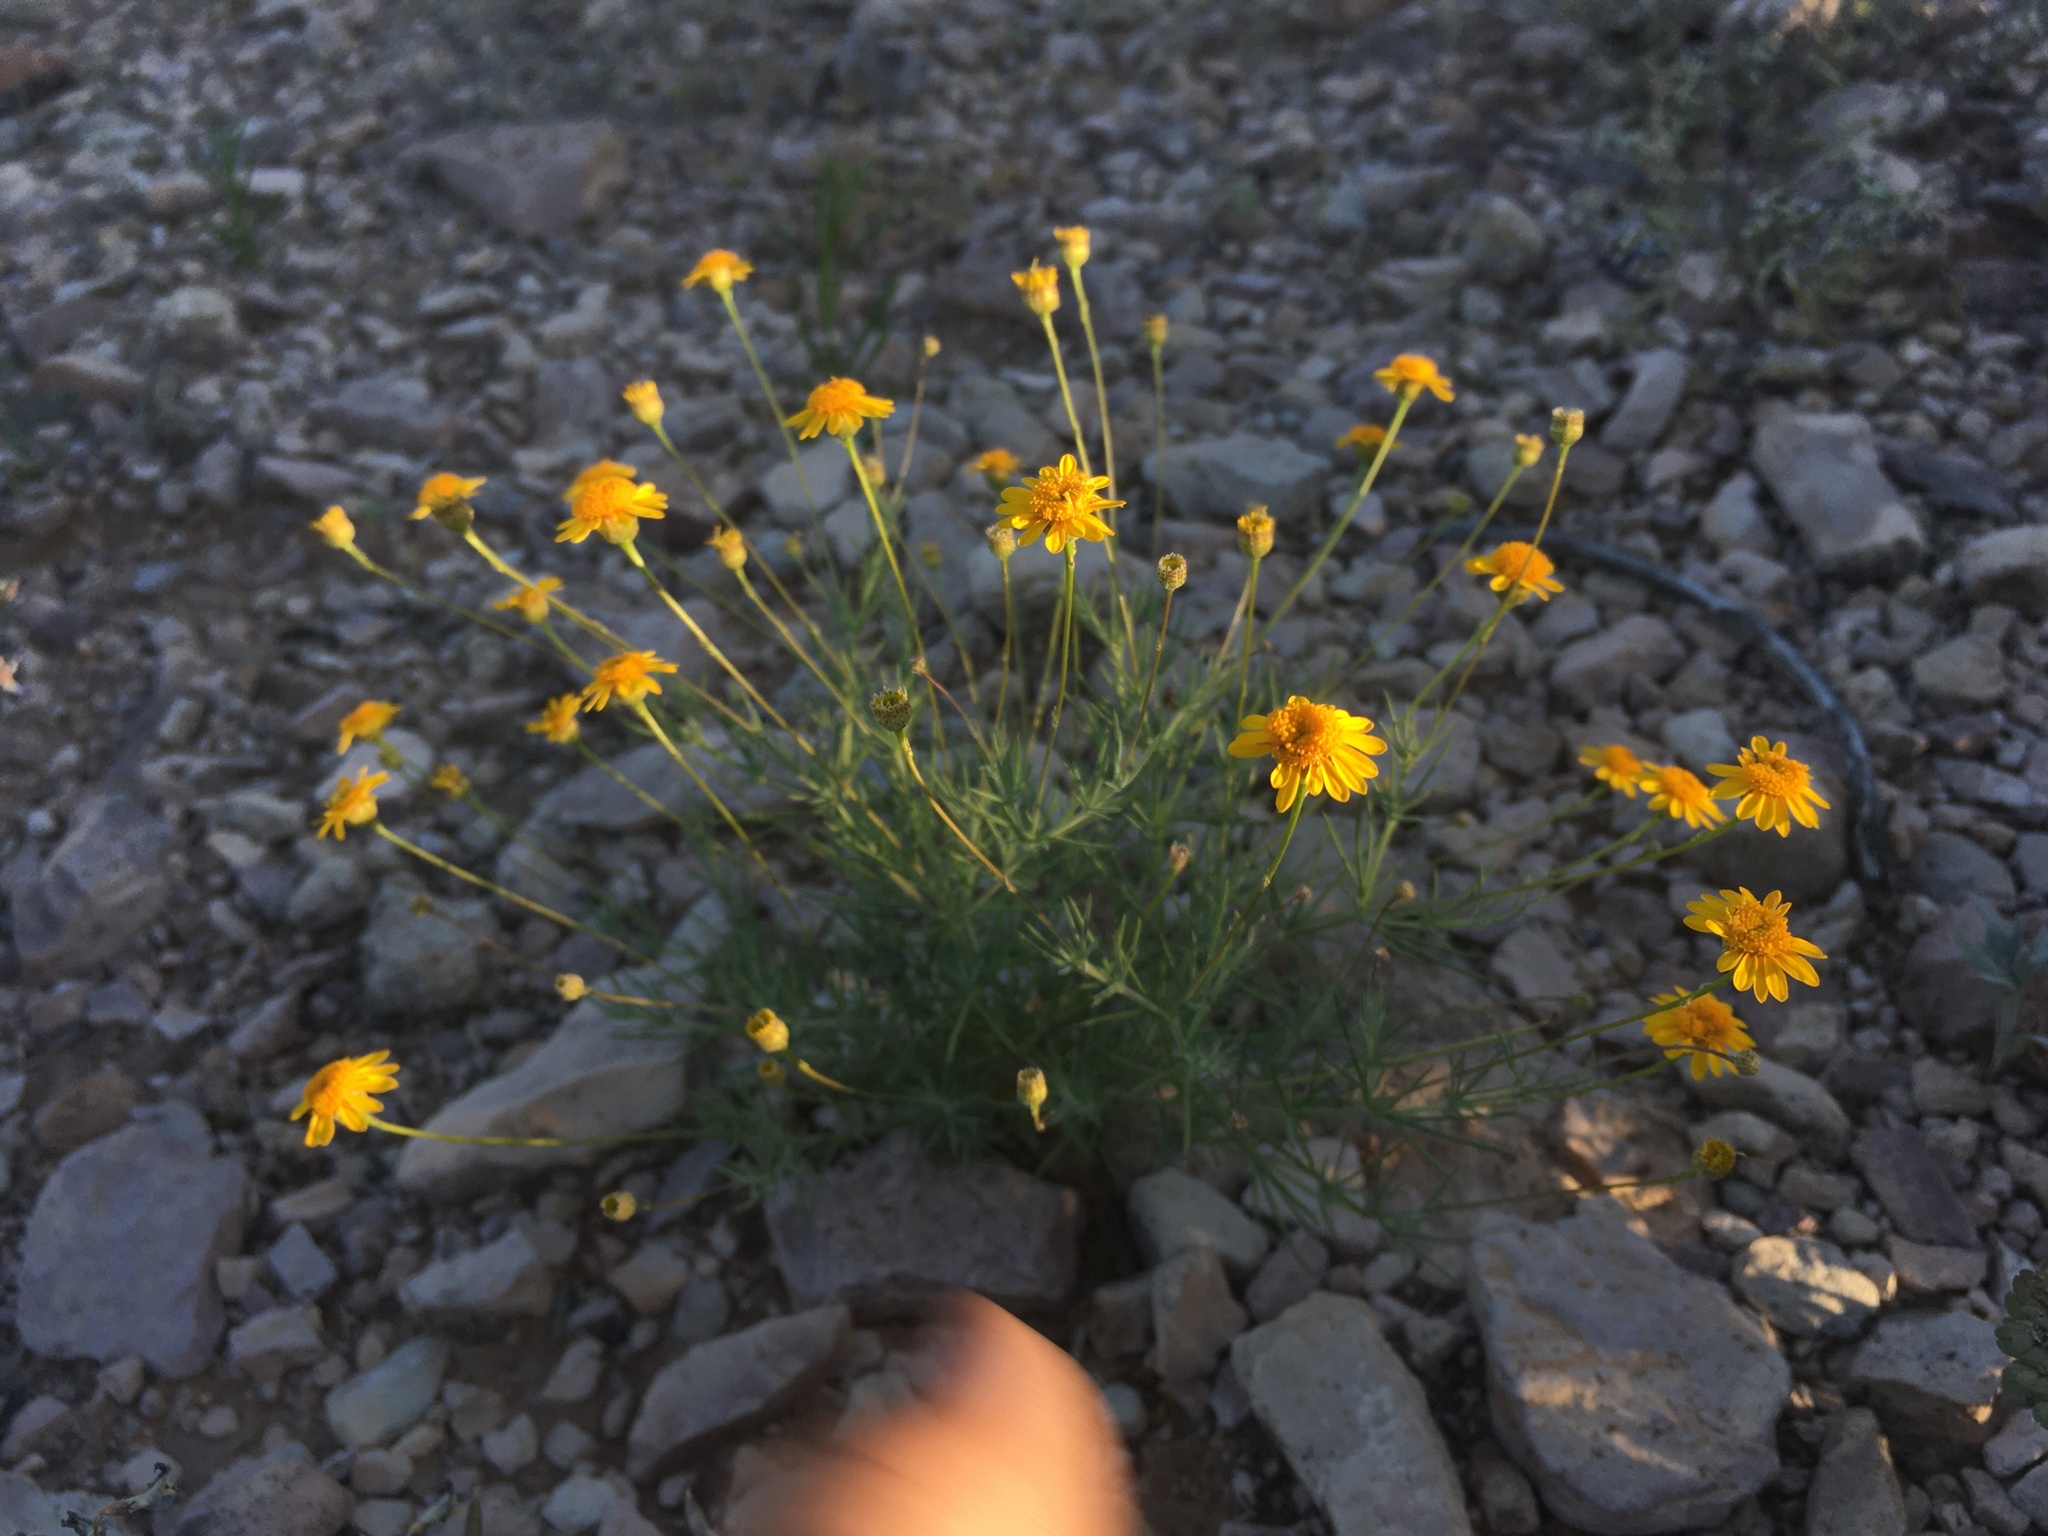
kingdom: Plantae
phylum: Tracheophyta
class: Magnoliopsida
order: Asterales
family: Asteraceae
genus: Thymophylla
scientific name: Thymophylla pentachaeta
